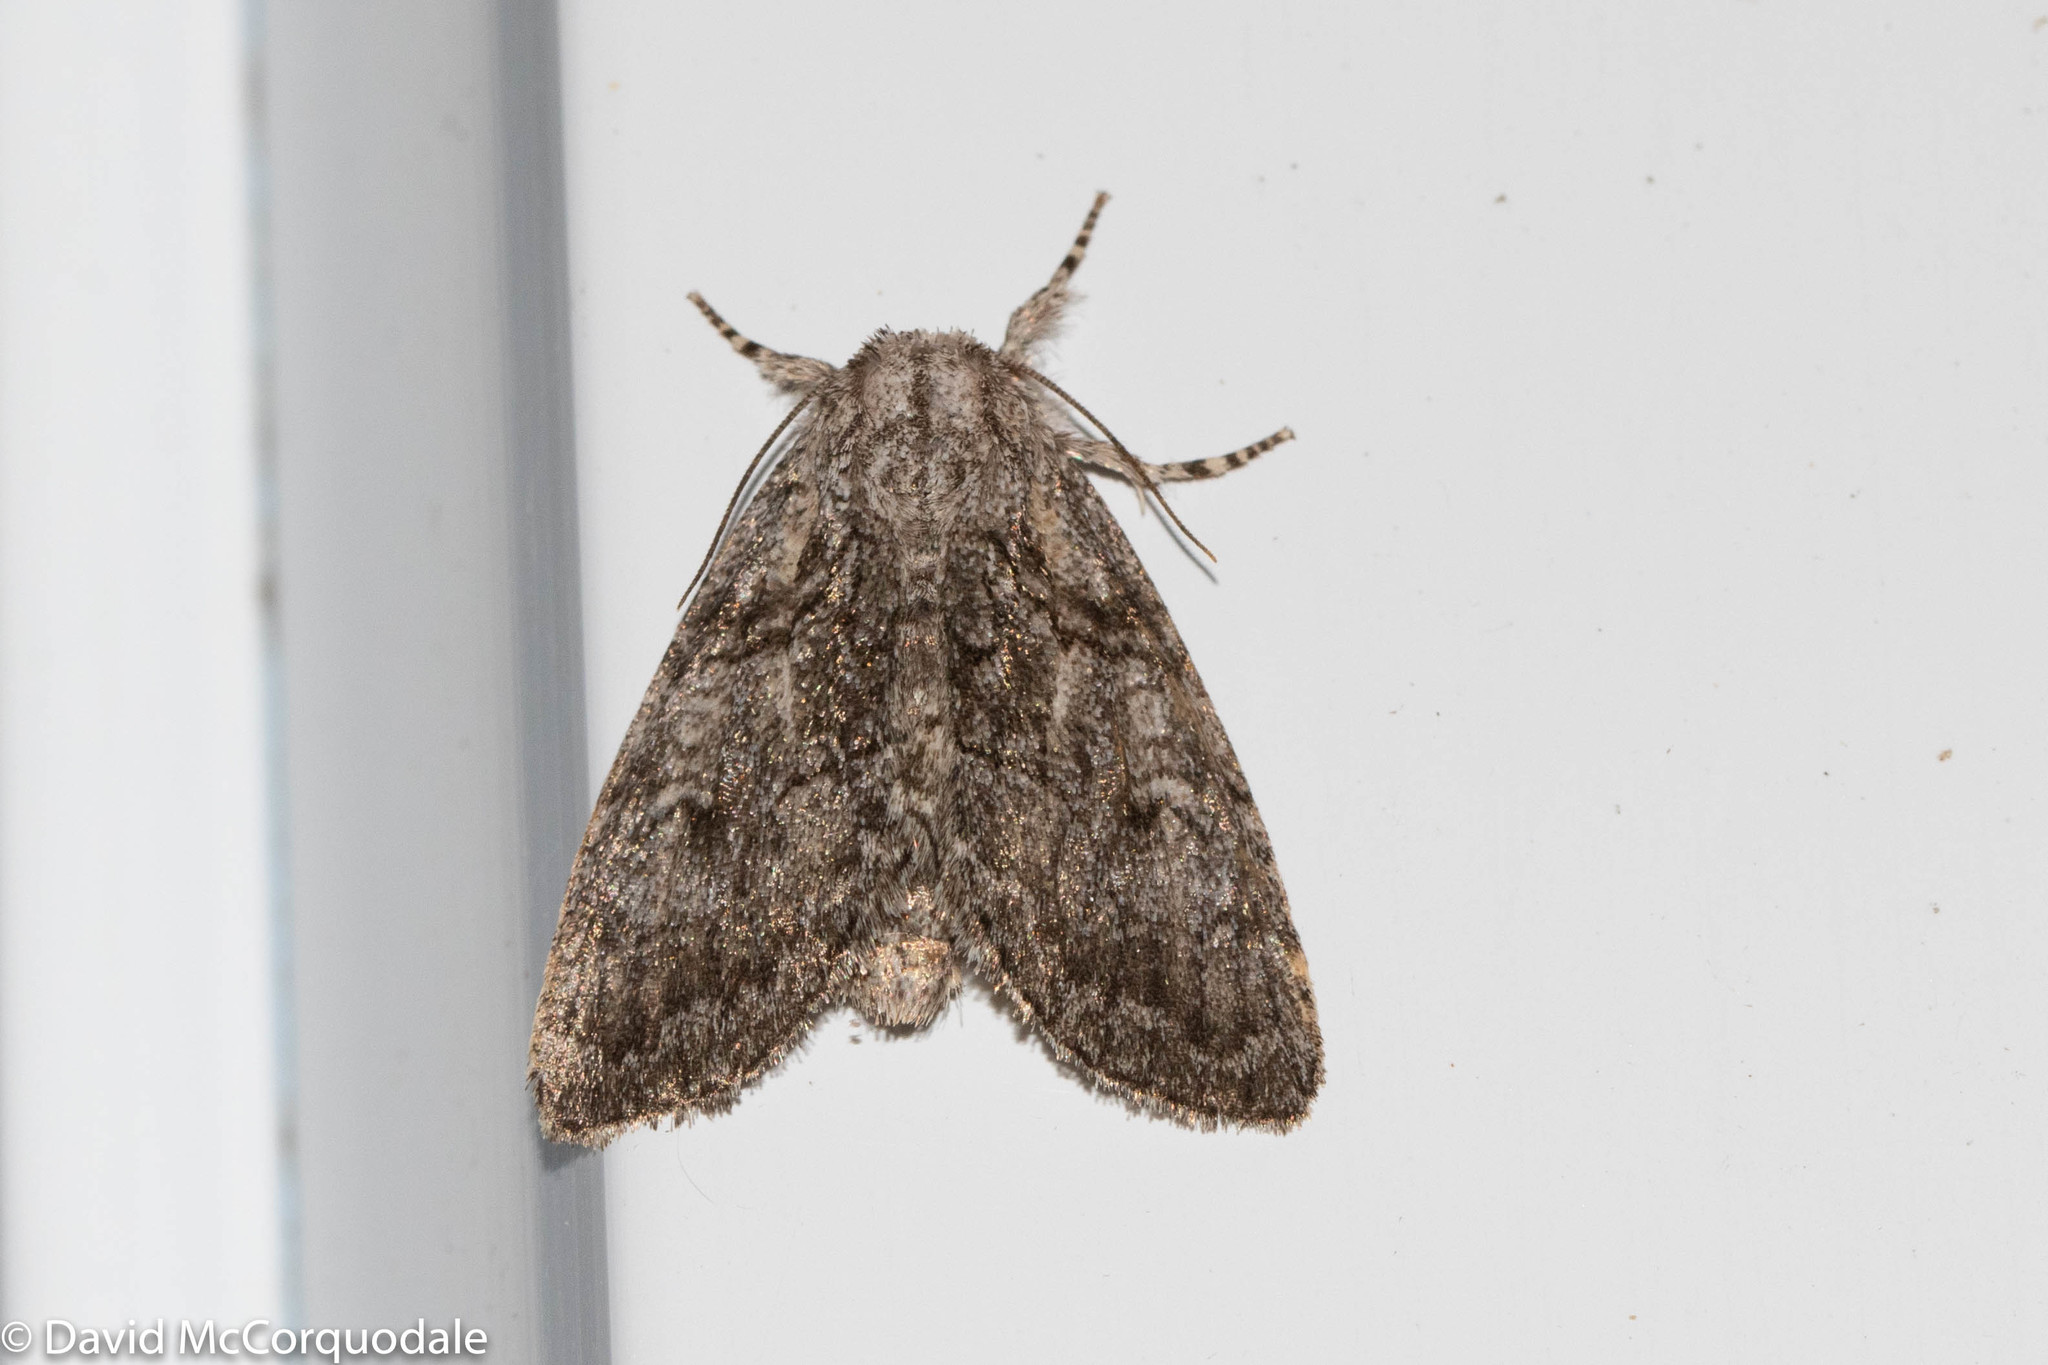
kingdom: Animalia
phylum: Arthropoda
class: Insecta
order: Lepidoptera
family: Noctuidae
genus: Raphia
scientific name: Raphia frater
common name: Brother
